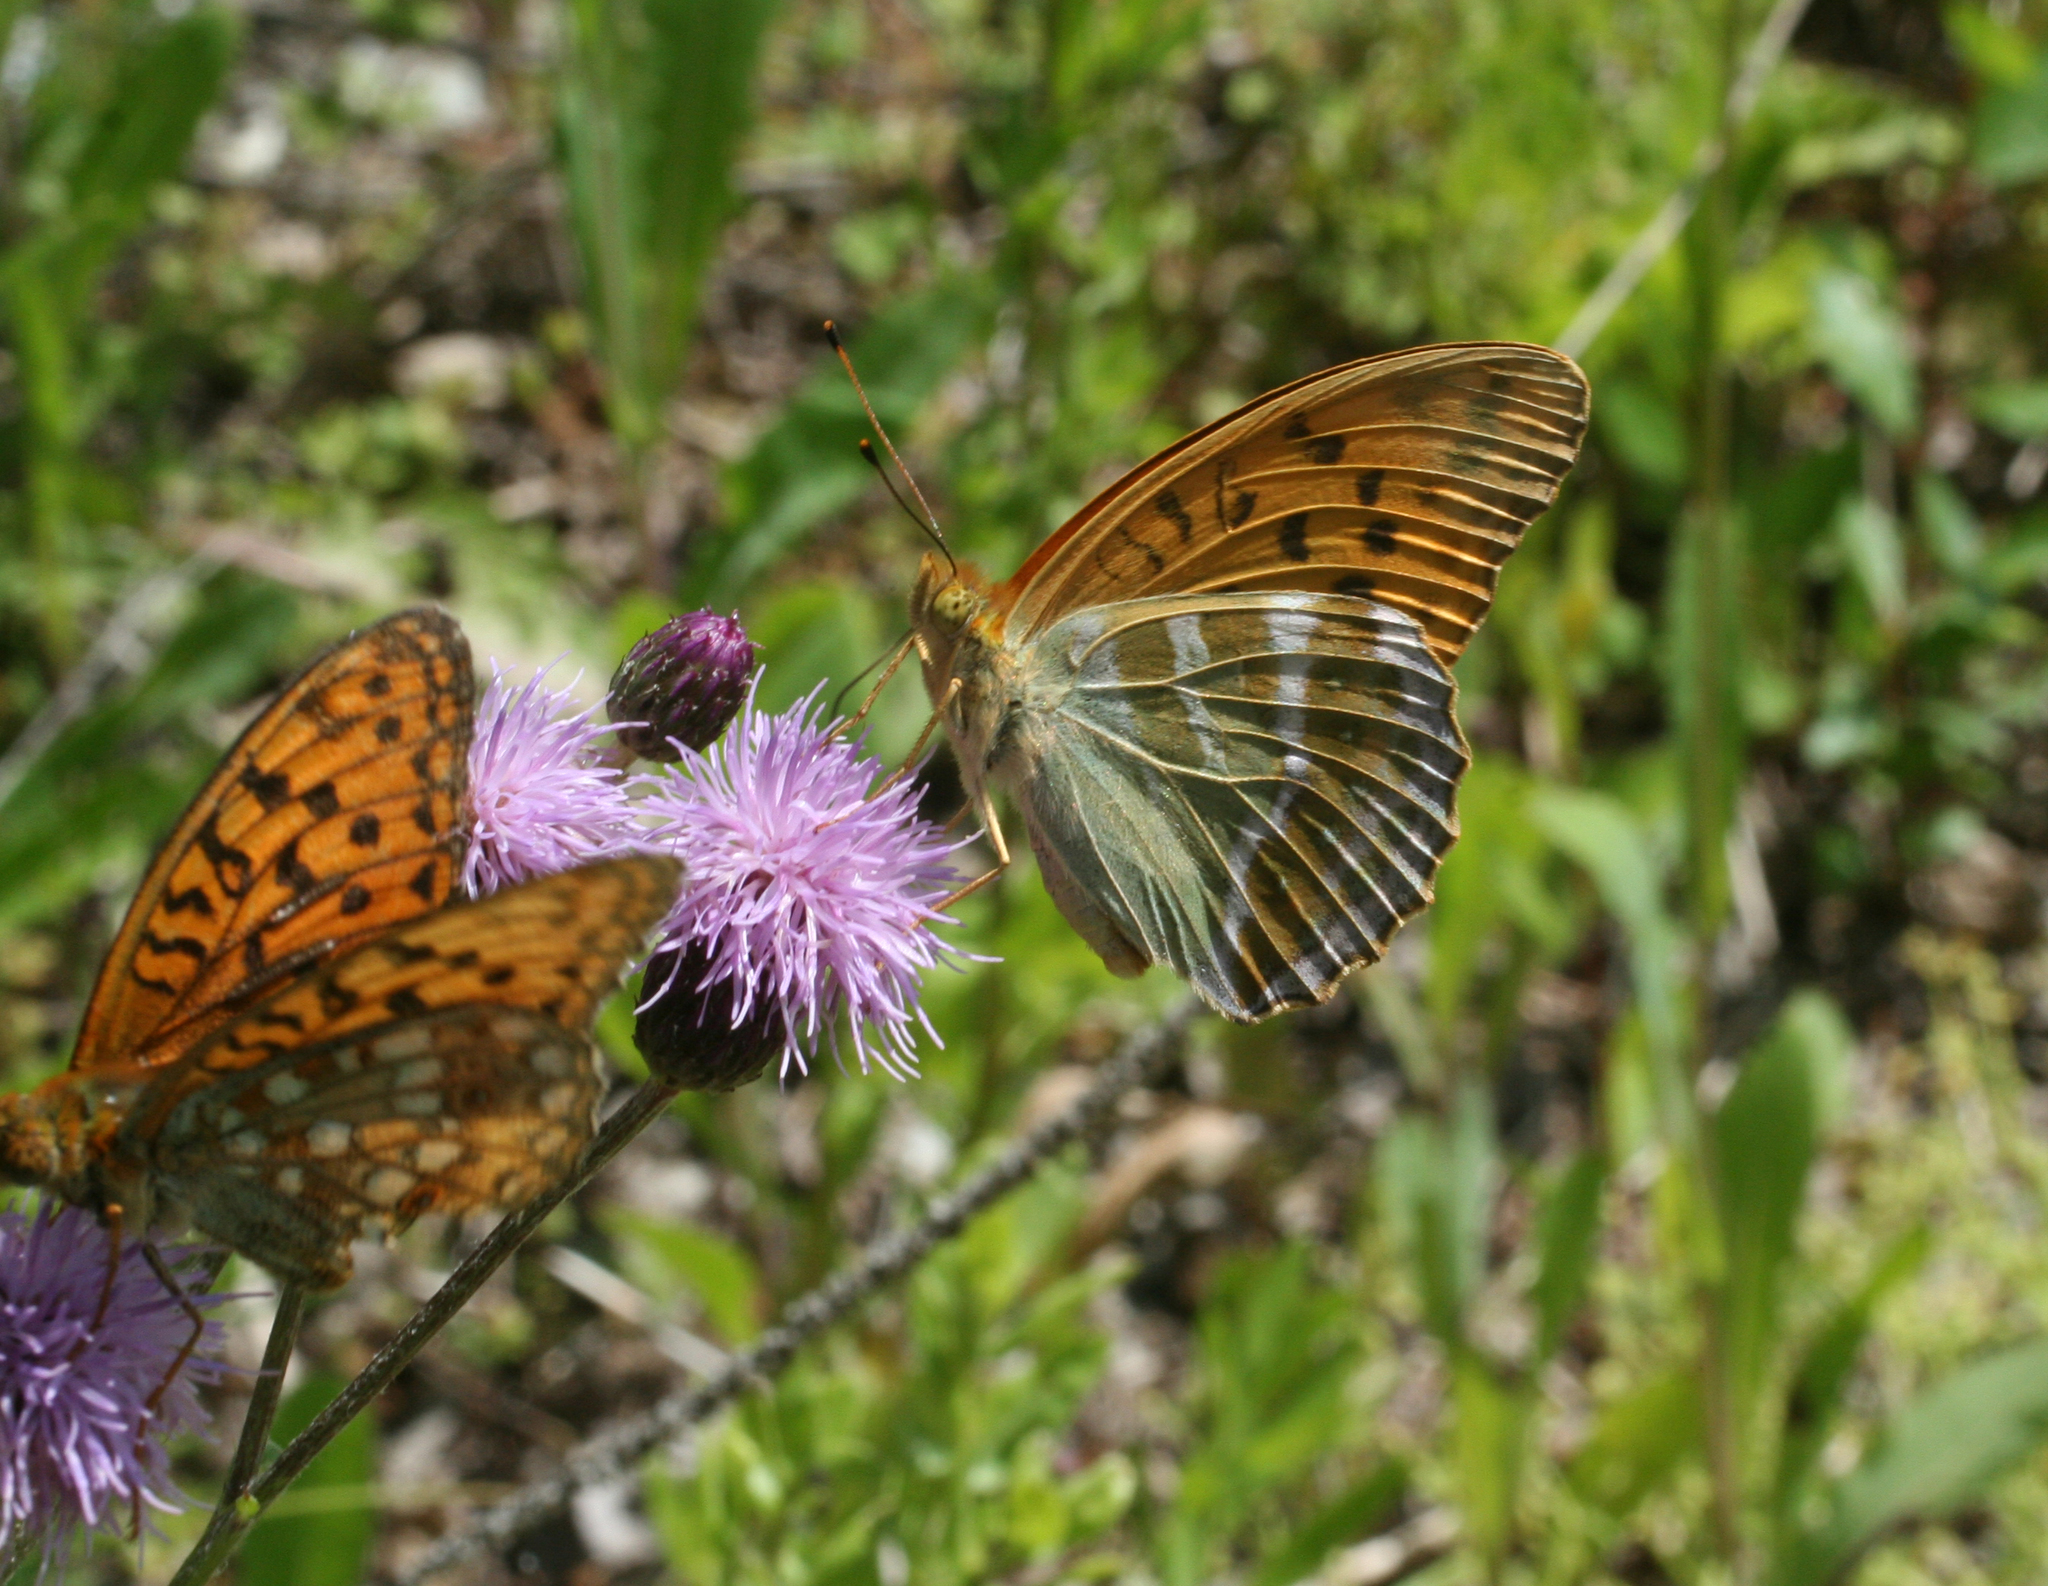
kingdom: Animalia
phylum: Arthropoda
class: Insecta
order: Lepidoptera
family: Nymphalidae
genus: Fabriciana
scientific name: Fabriciana adippe
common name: High brown fritillary
